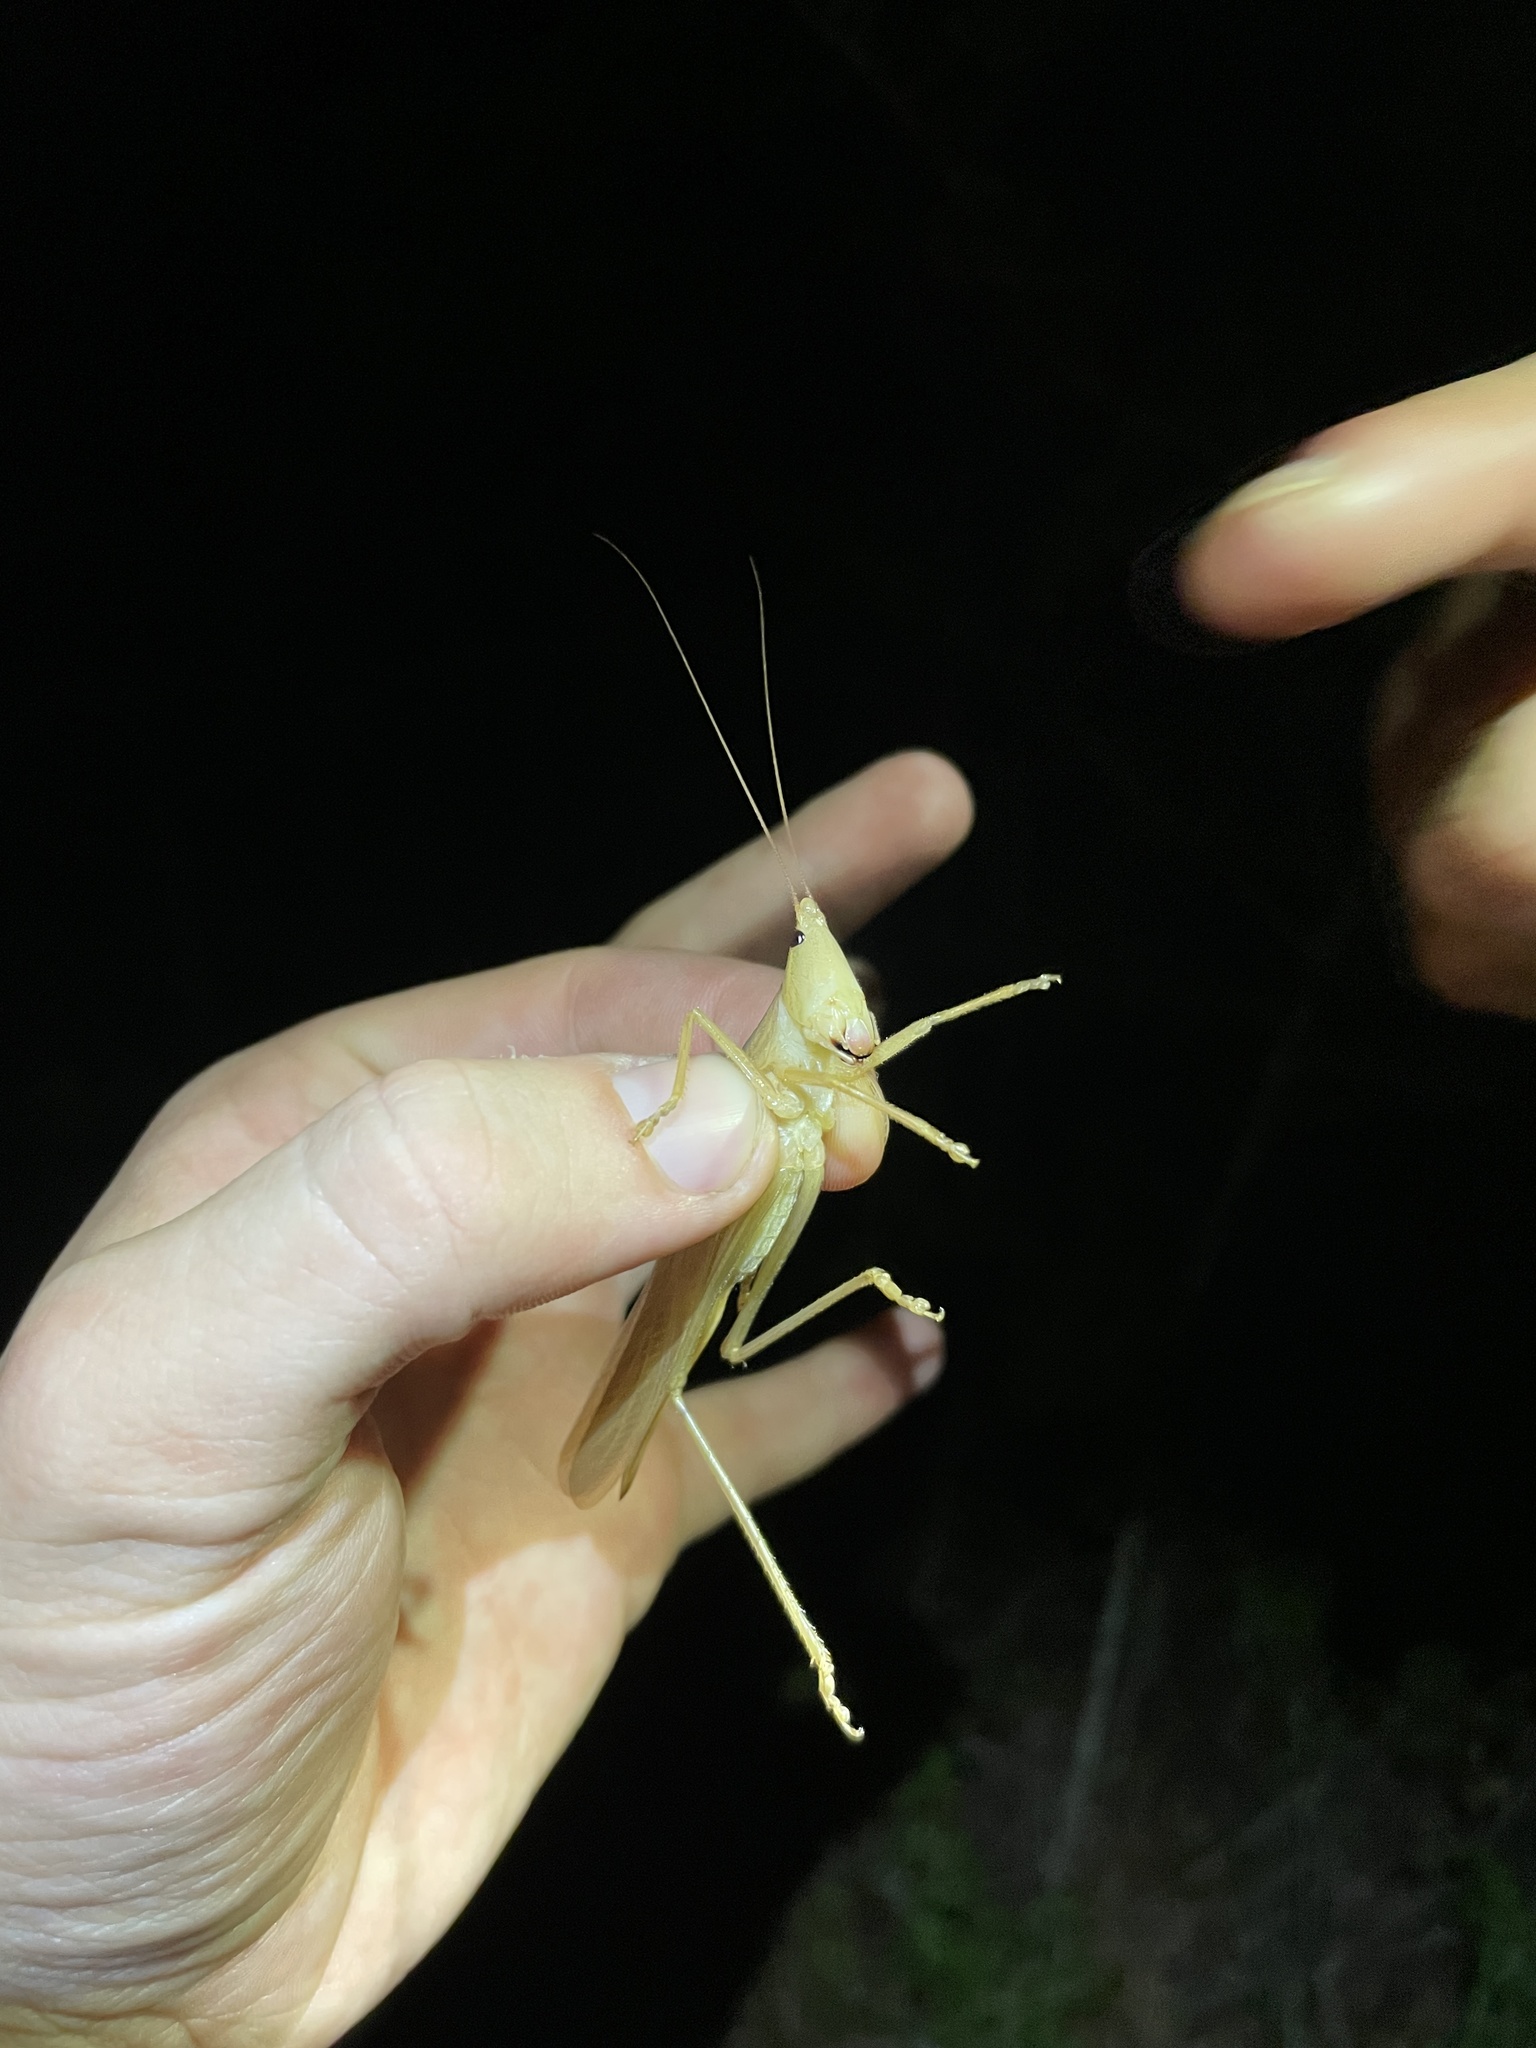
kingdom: Animalia
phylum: Arthropoda
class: Insecta
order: Orthoptera
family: Tettigoniidae
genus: Neoconocephalus
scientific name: Neoconocephalus velox
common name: Swift conehead
